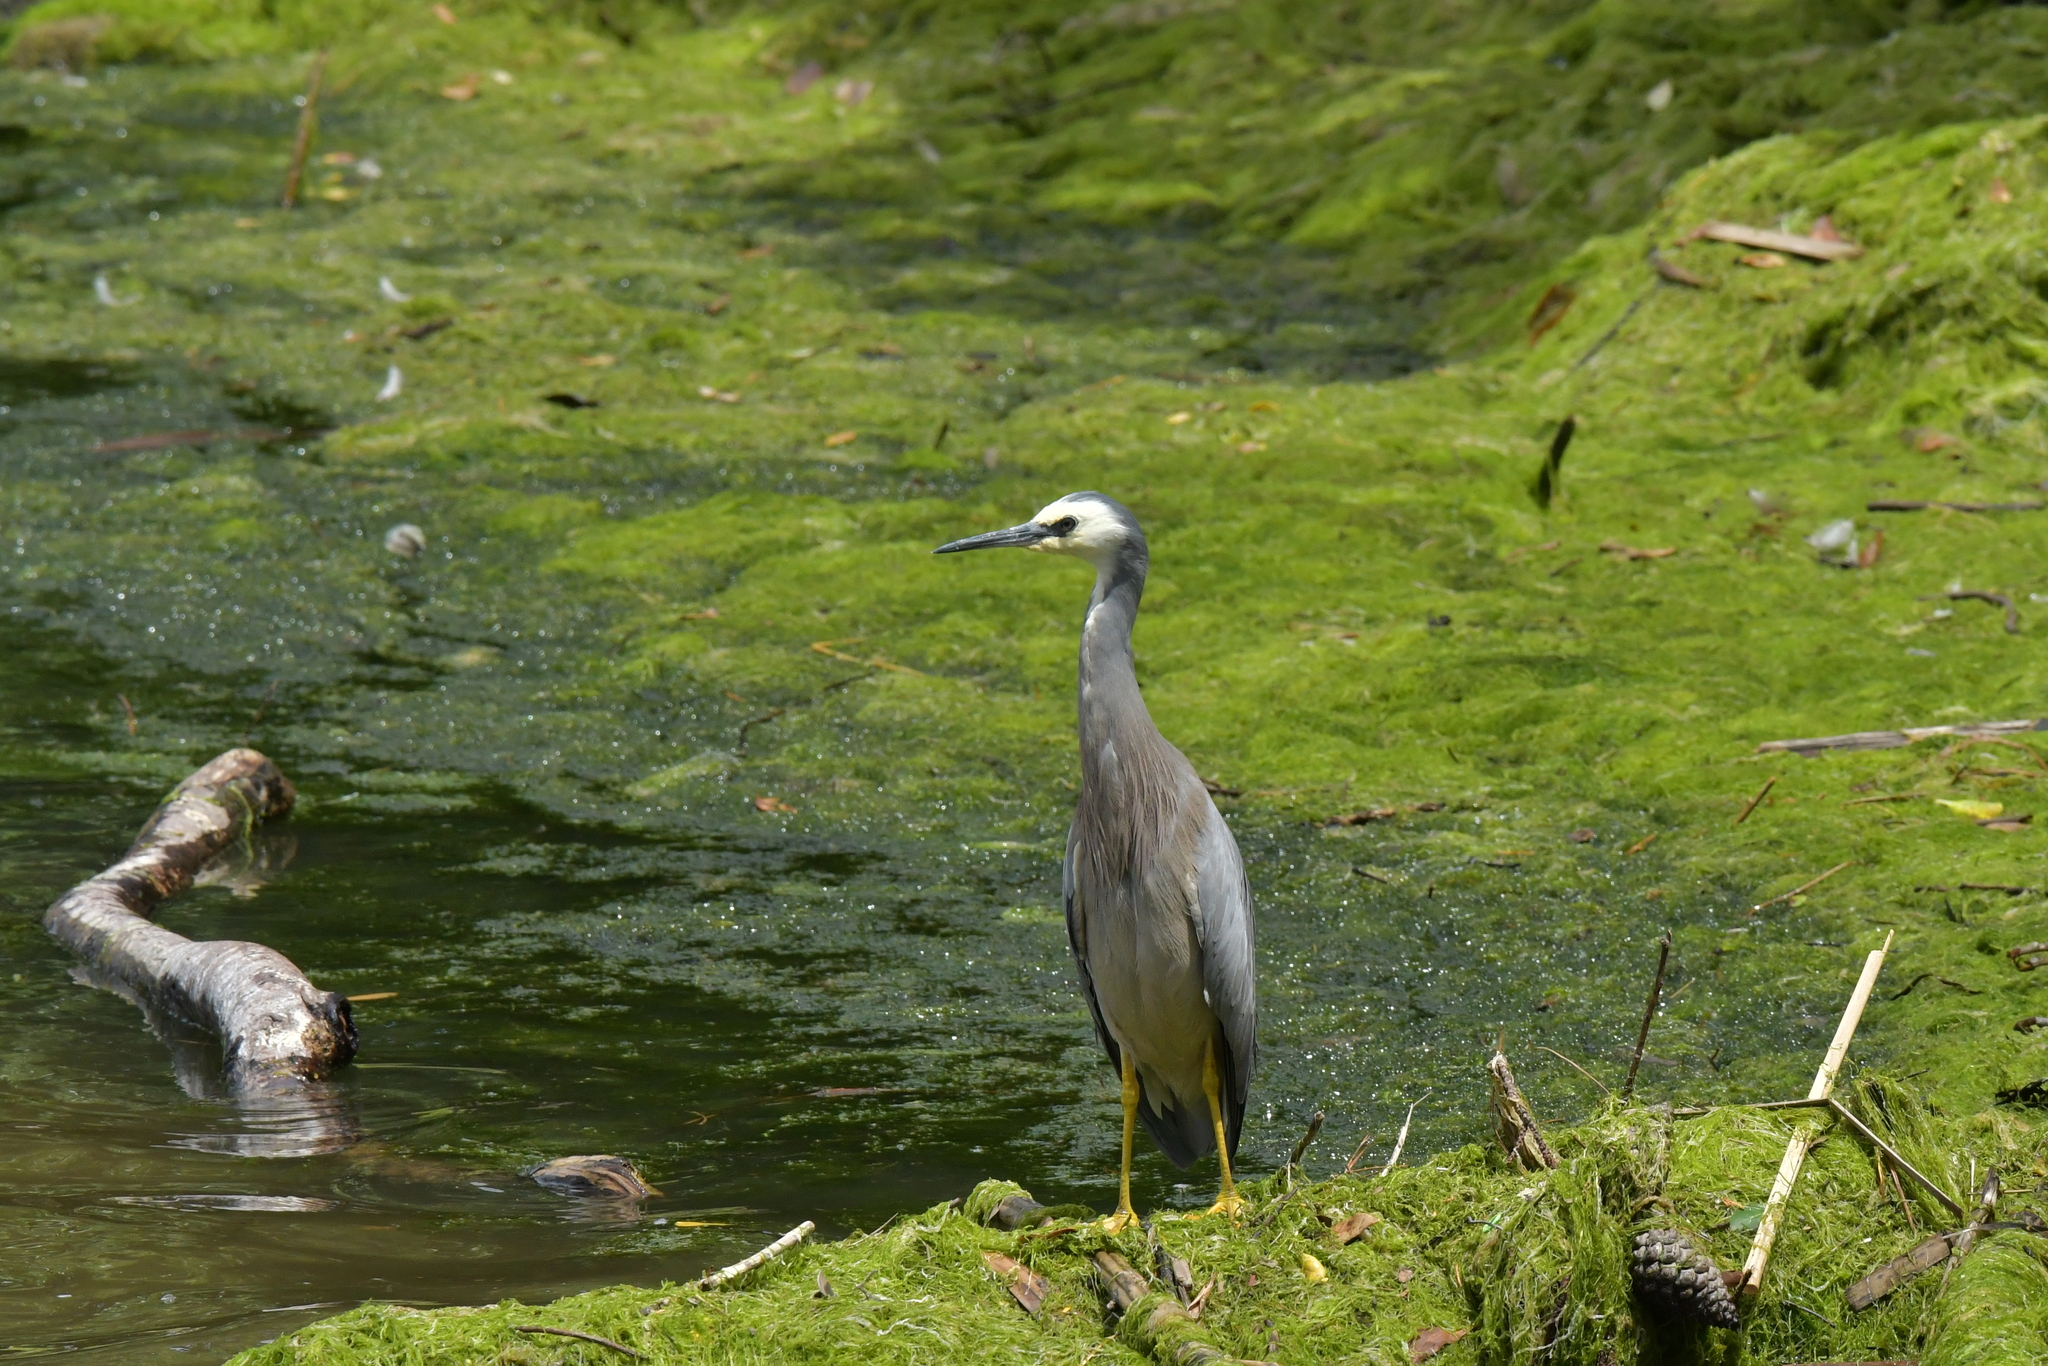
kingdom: Animalia
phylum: Chordata
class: Aves
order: Pelecaniformes
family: Ardeidae
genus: Egretta
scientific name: Egretta novaehollandiae
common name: White-faced heron
